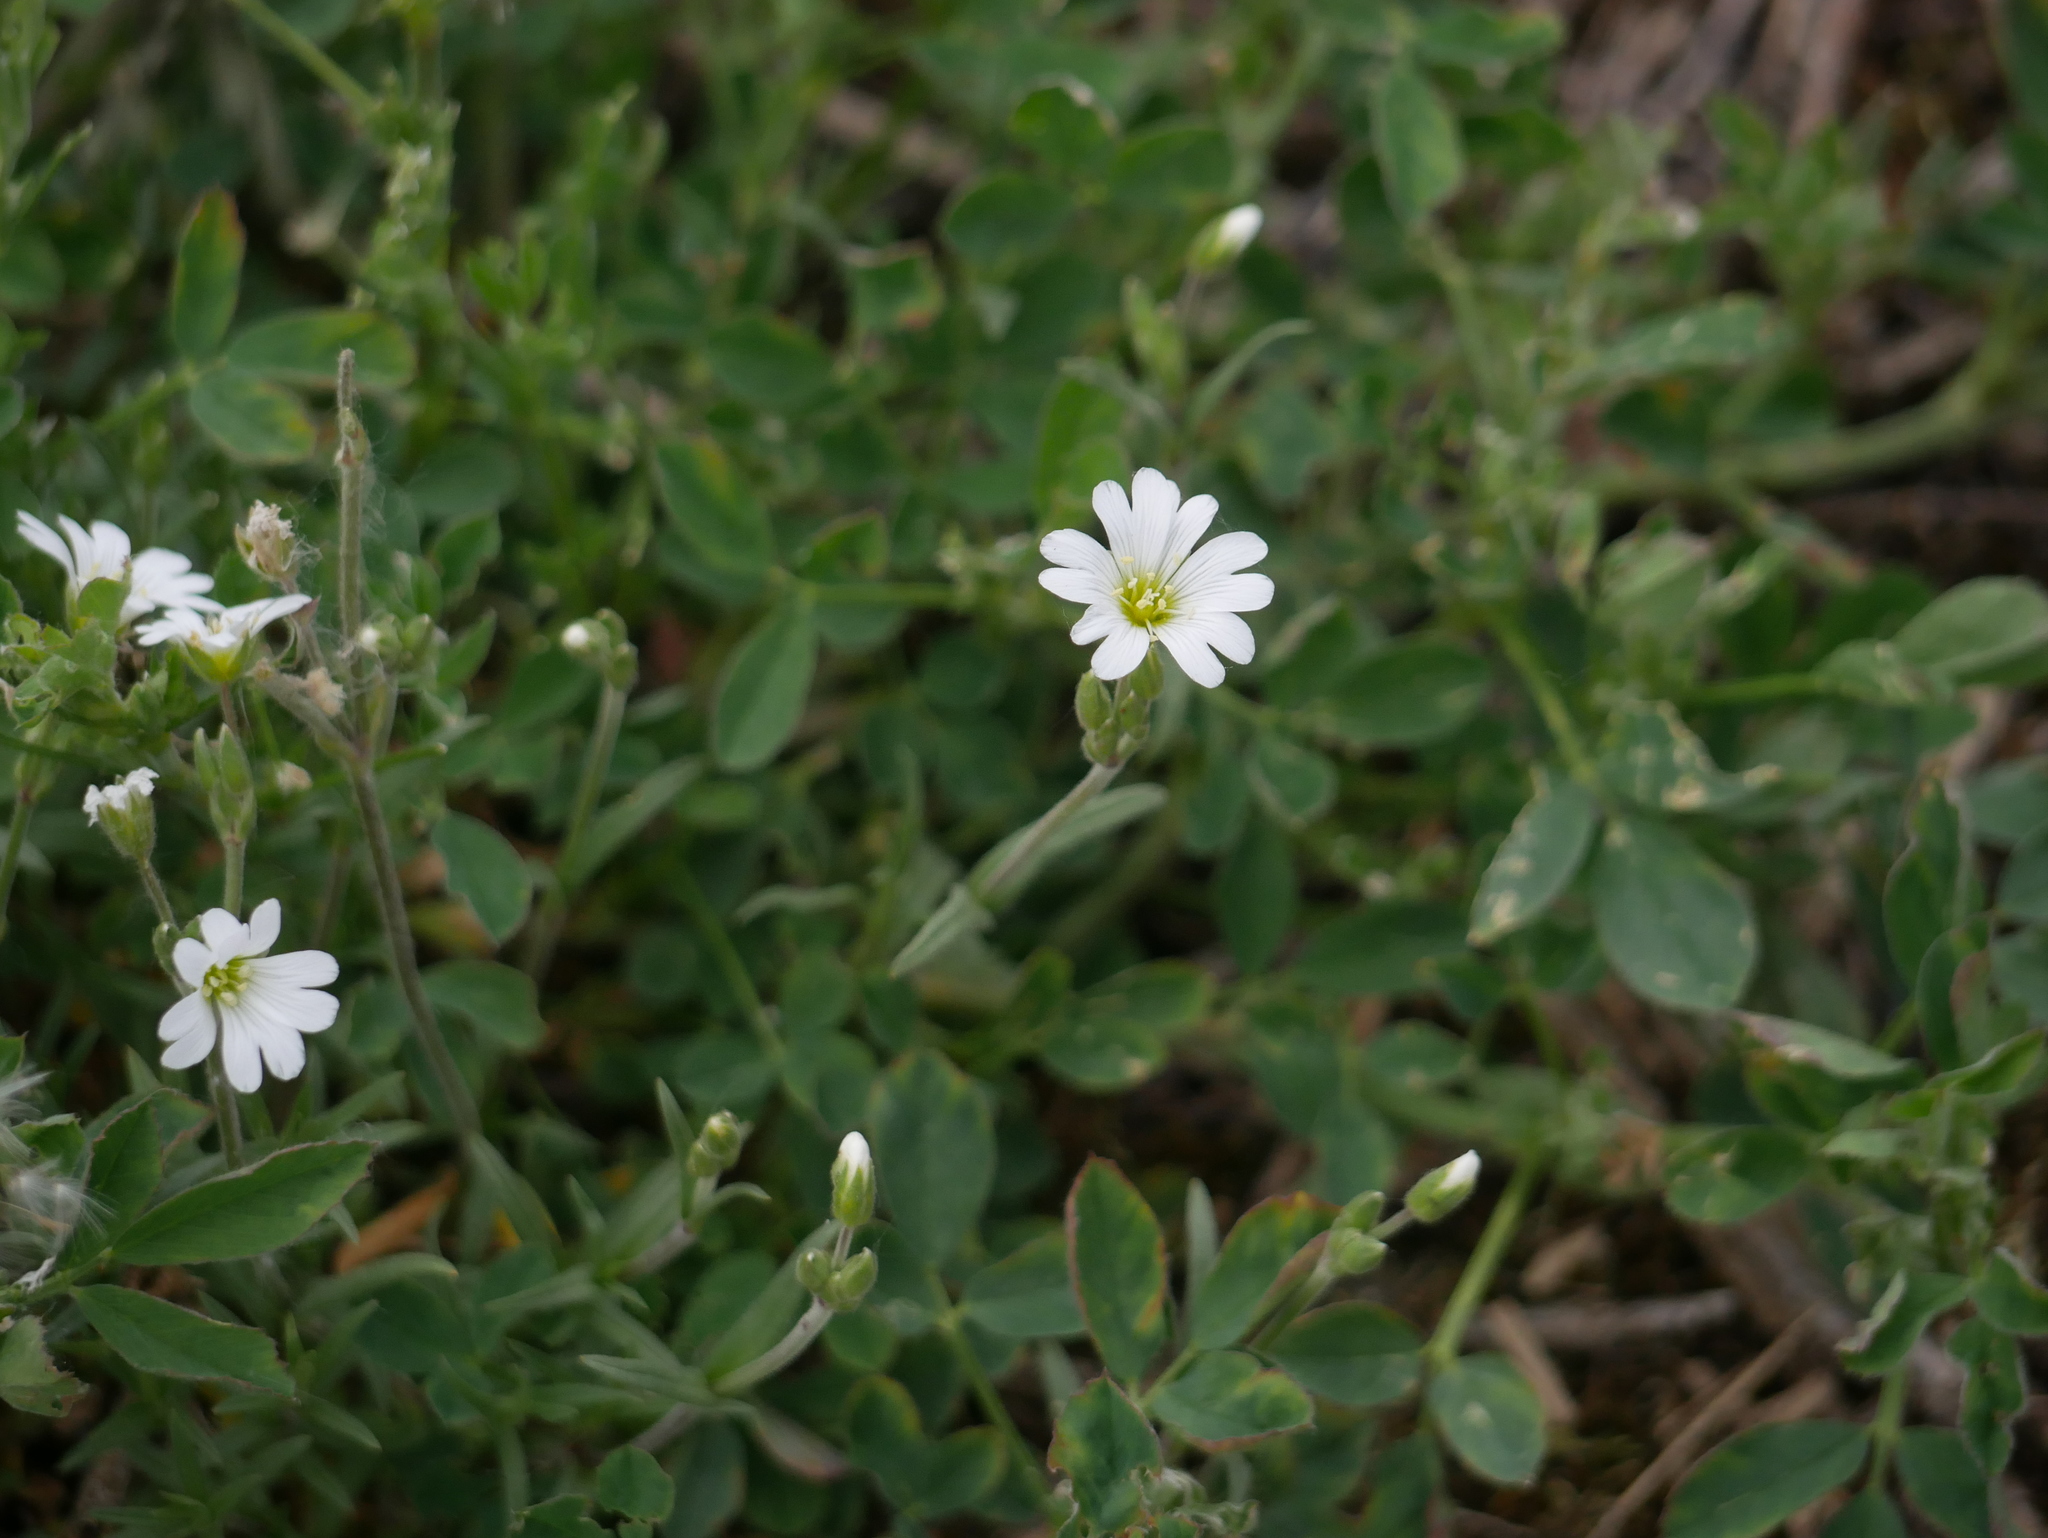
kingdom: Plantae
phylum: Tracheophyta
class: Magnoliopsida
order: Caryophyllales
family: Caryophyllaceae
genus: Cerastium
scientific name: Cerastium arvense
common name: Field mouse-ear
